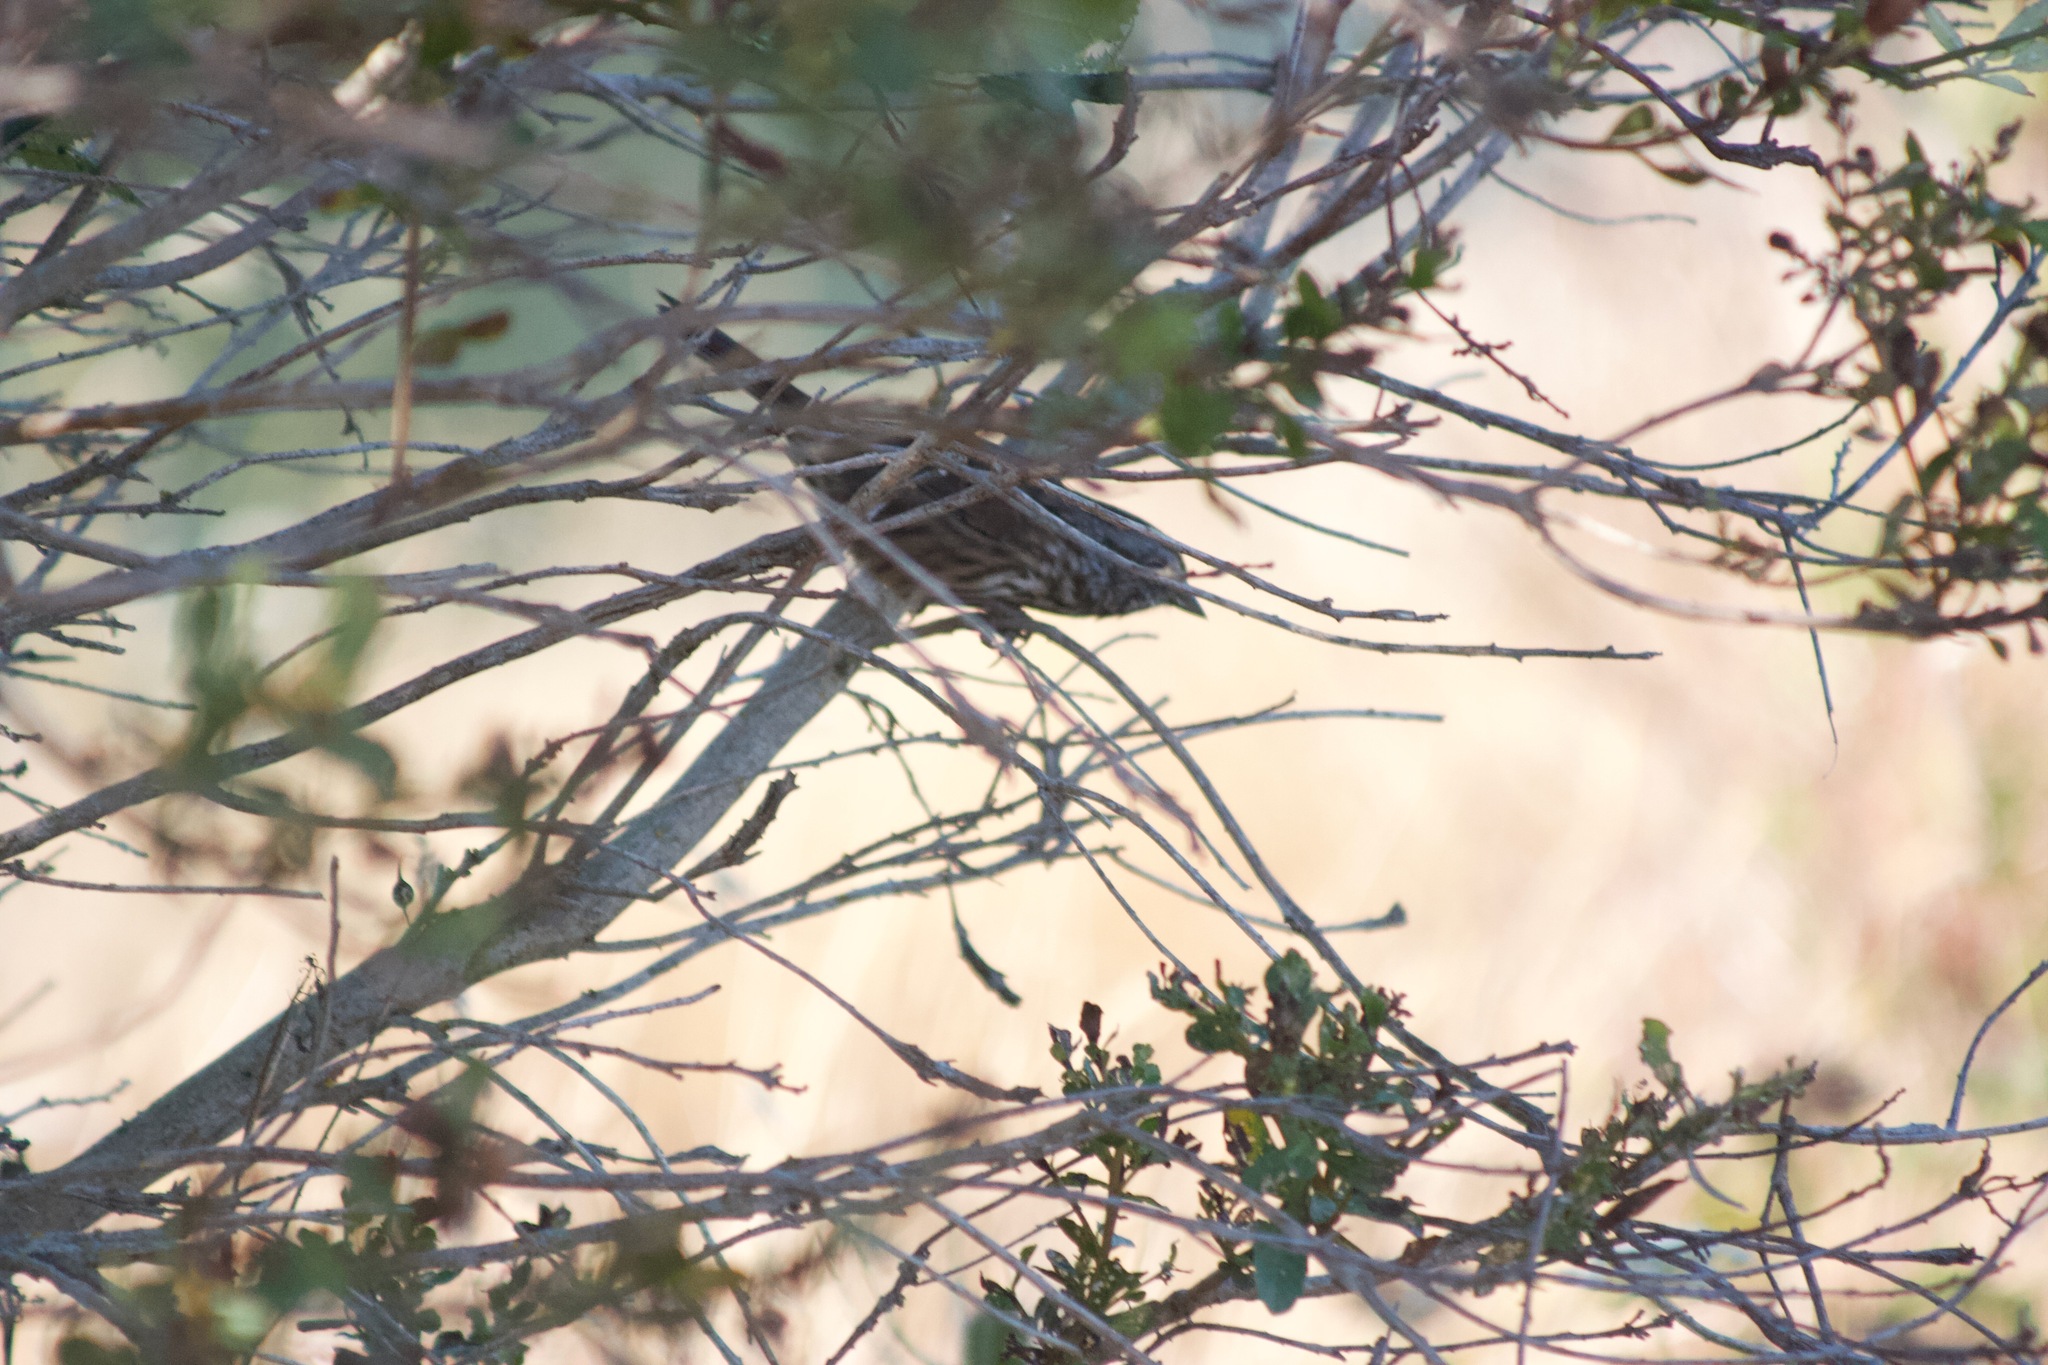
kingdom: Animalia
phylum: Chordata
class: Aves
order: Passeriformes
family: Passerellidae
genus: Melospiza
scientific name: Melospiza melodia
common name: Song sparrow
